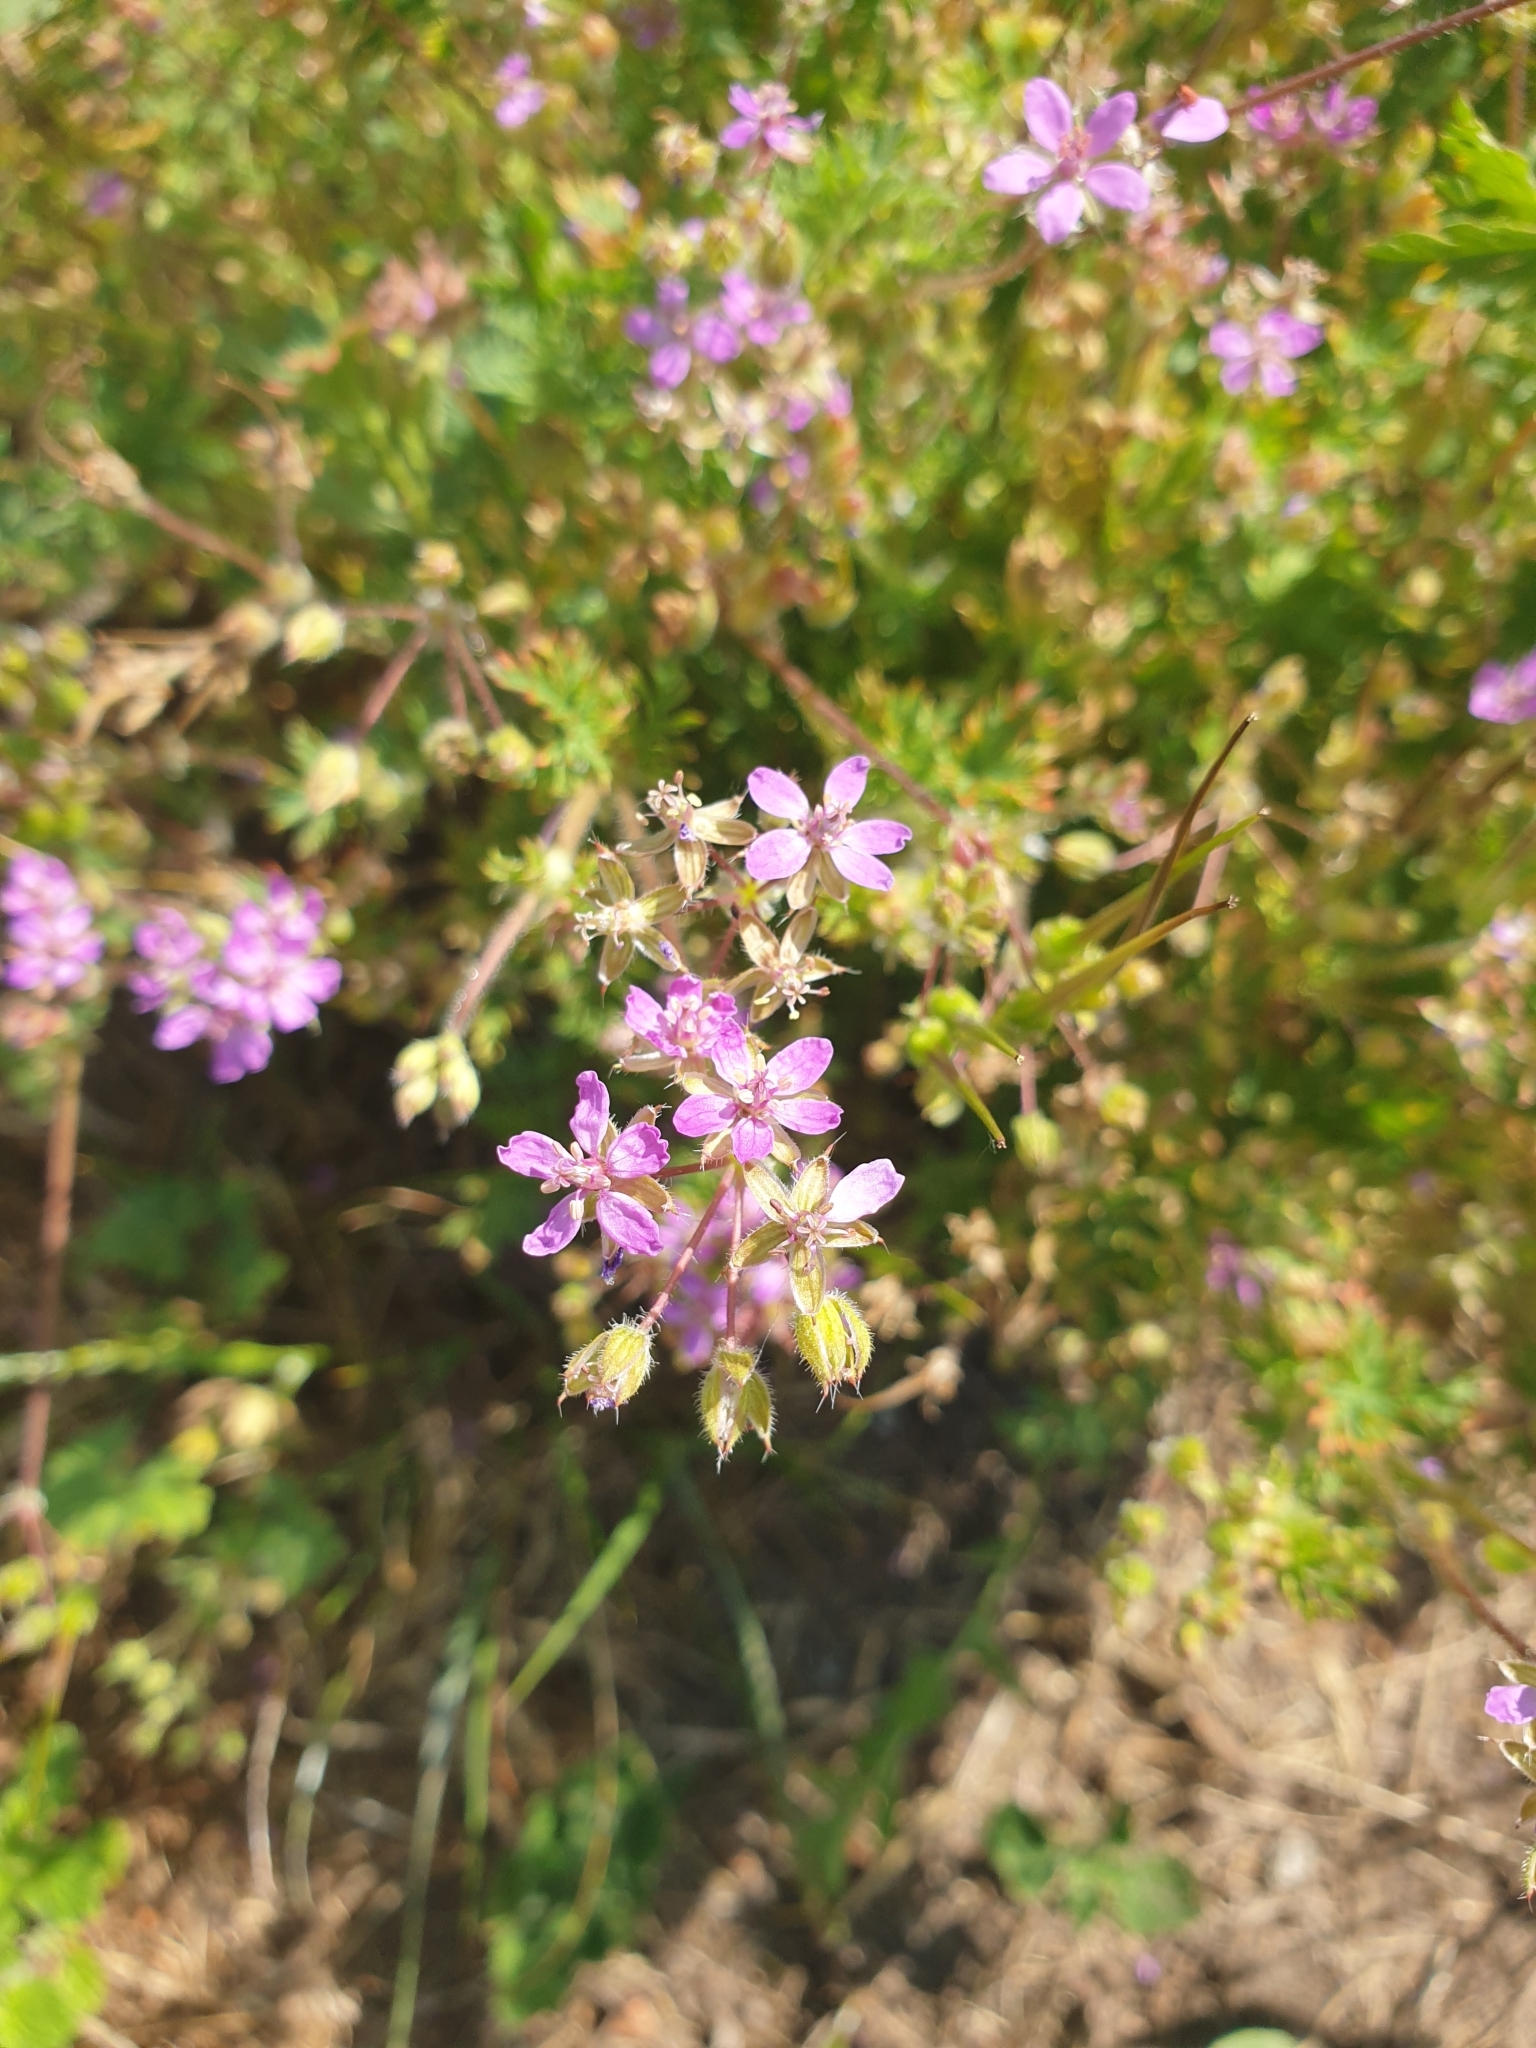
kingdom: Plantae
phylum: Tracheophyta
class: Magnoliopsida
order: Geraniales
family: Geraniaceae
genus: Erodium
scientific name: Erodium cicutarium
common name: Common stork's-bill
